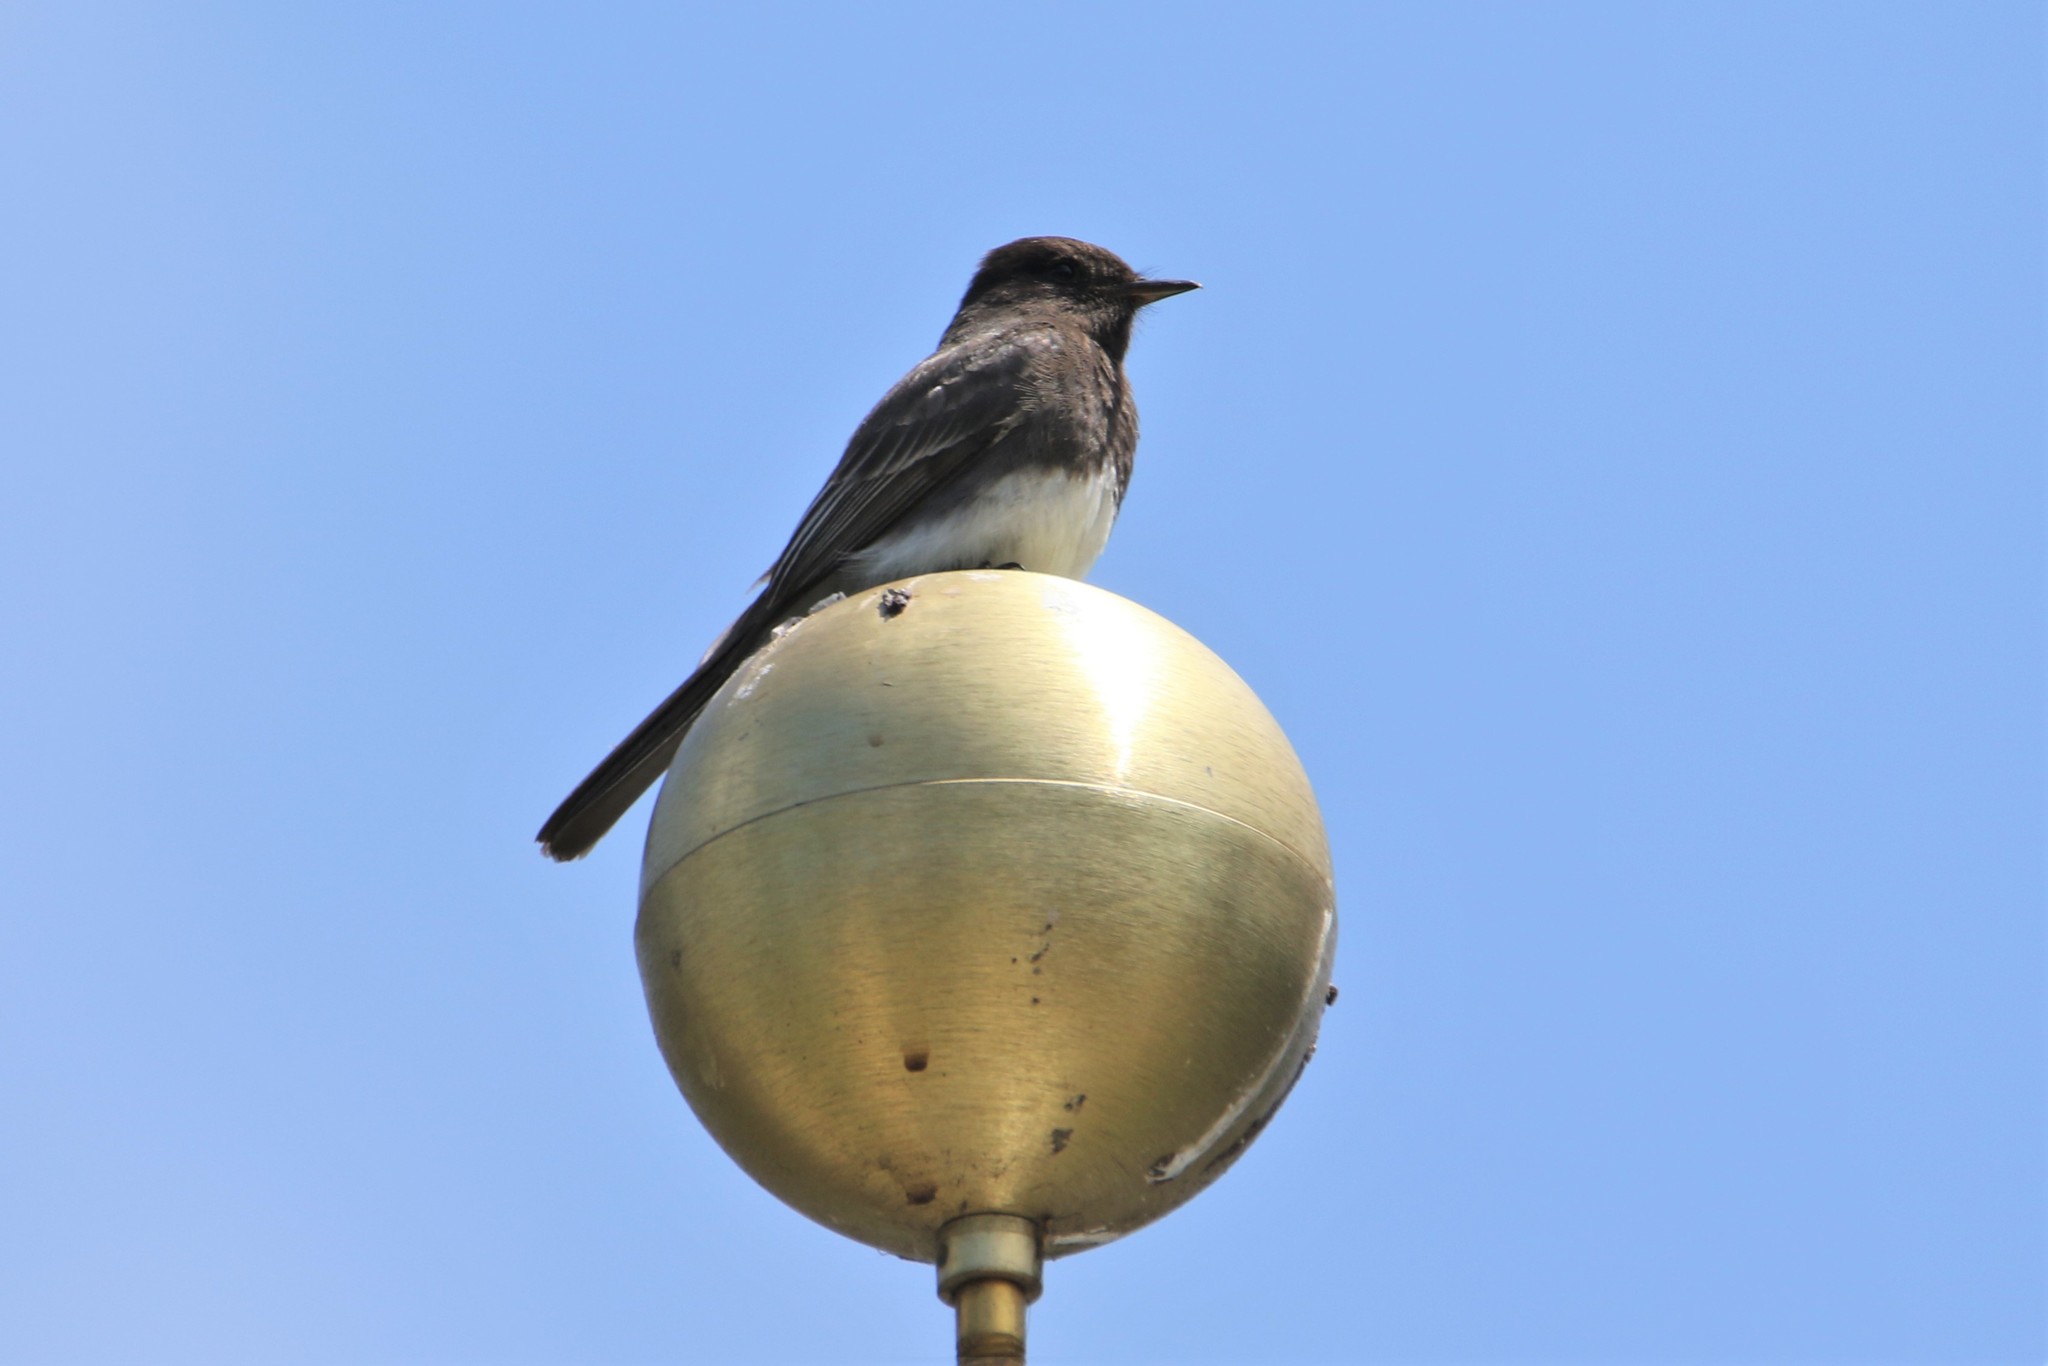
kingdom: Animalia
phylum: Chordata
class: Aves
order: Passeriformes
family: Tyrannidae
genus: Sayornis
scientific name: Sayornis nigricans
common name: Black phoebe
